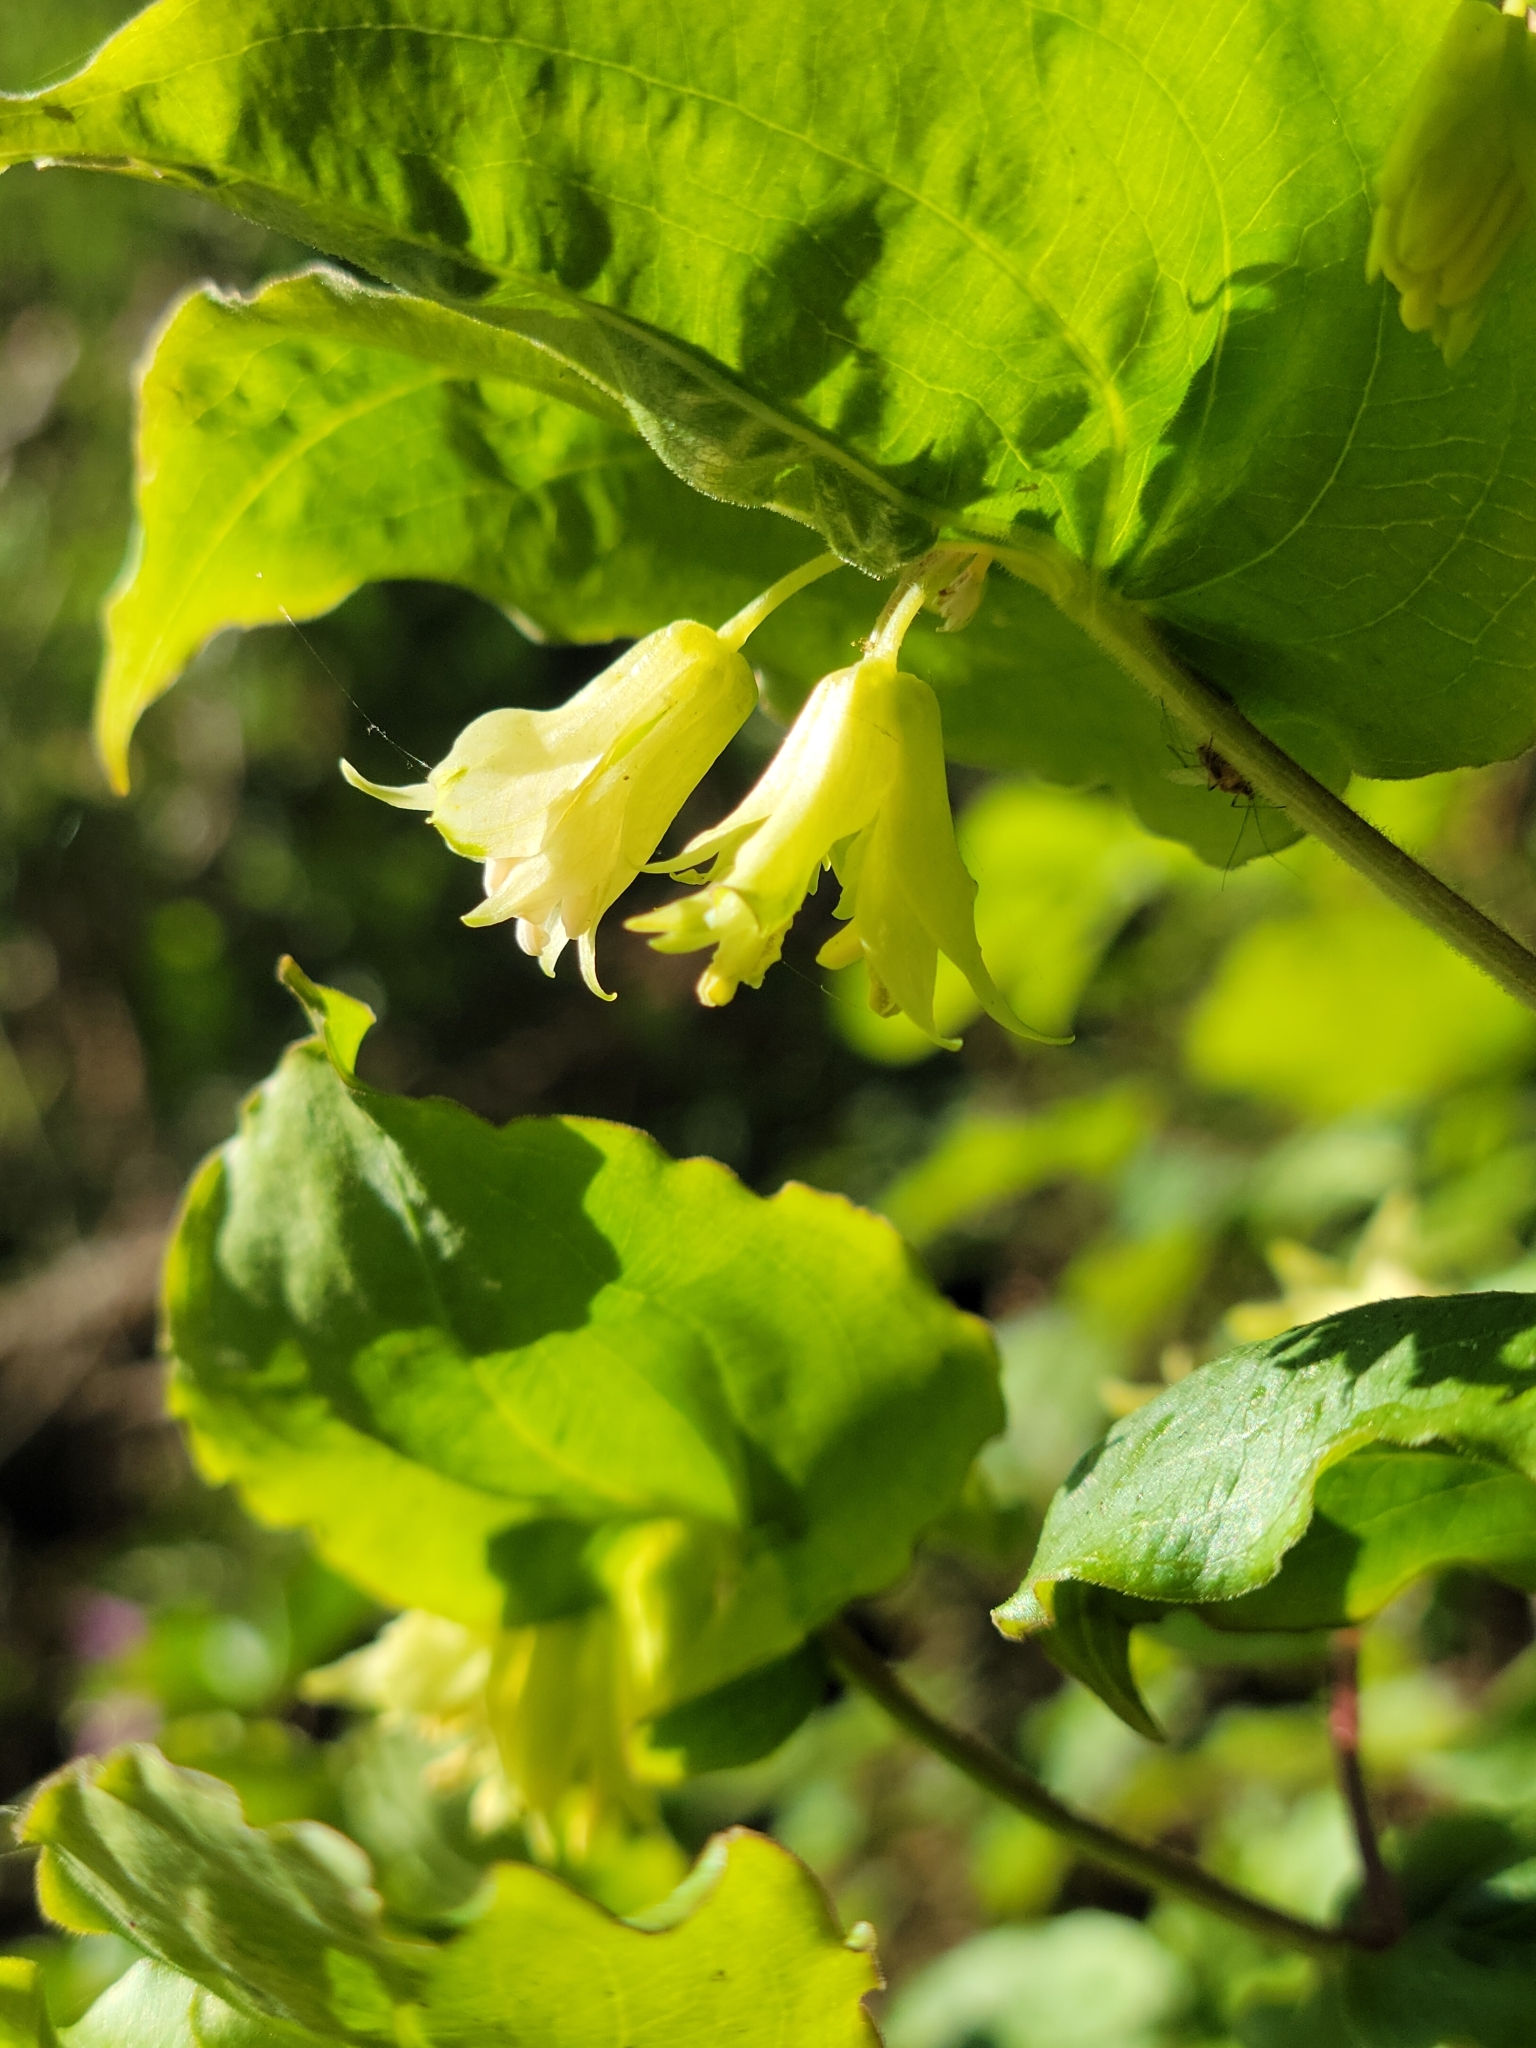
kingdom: Plantae
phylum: Tracheophyta
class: Liliopsida
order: Liliales
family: Liliaceae
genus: Prosartes
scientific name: Prosartes hookeri
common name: Fairy-bells
